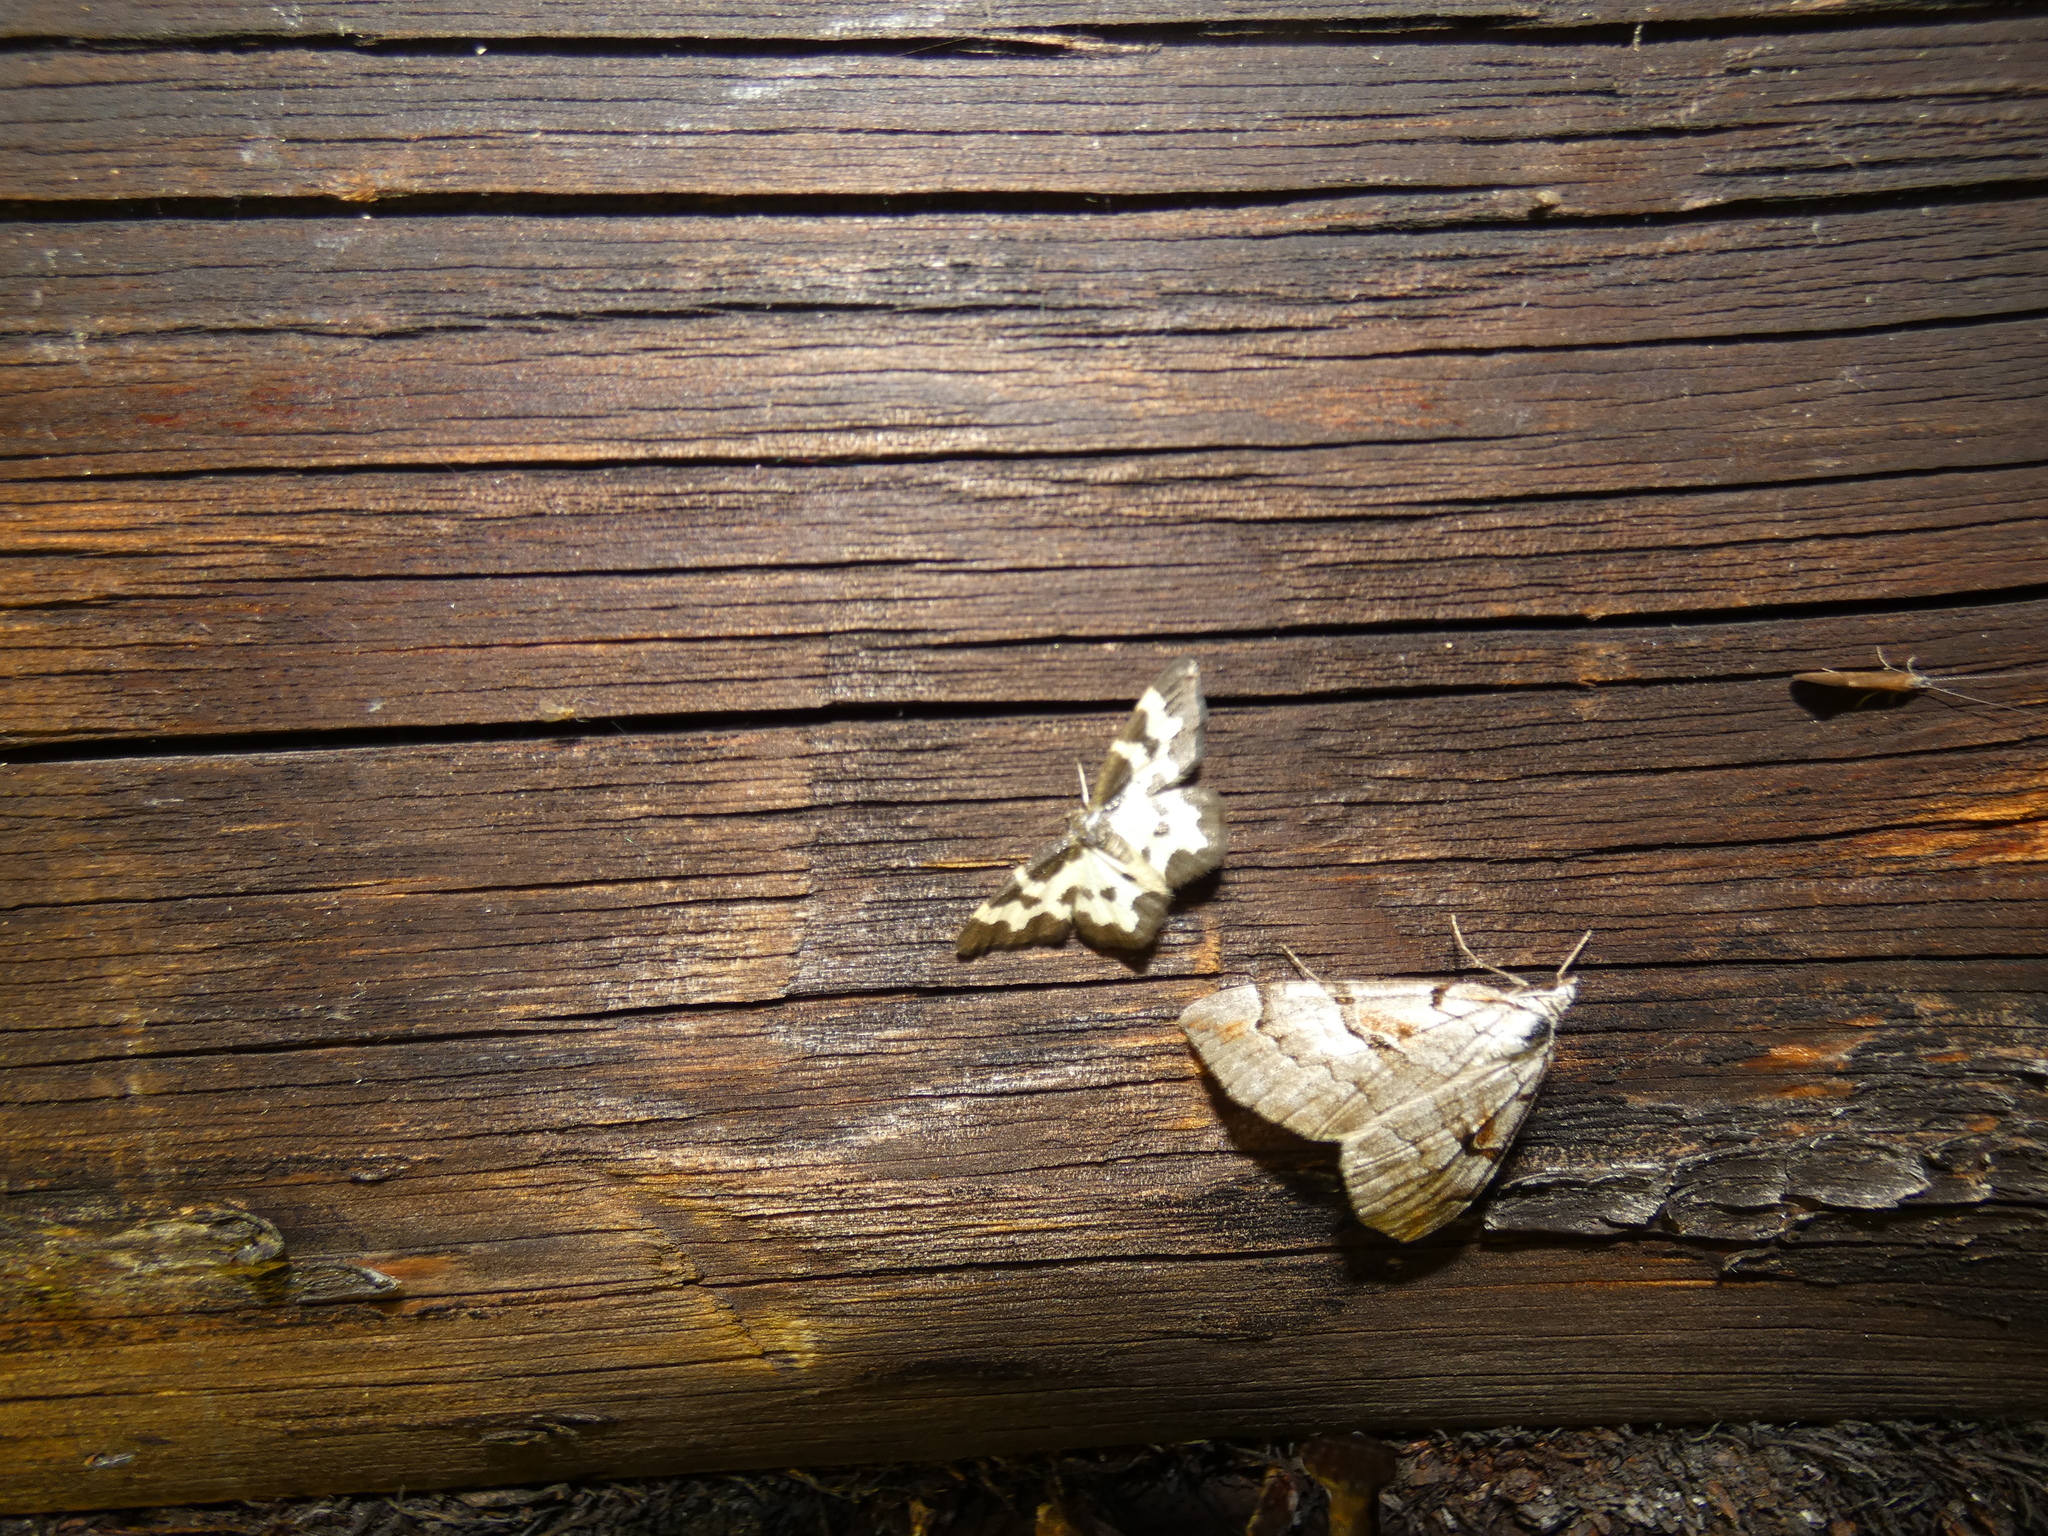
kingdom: Animalia
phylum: Arthropoda
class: Insecta
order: Lepidoptera
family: Geometridae
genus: Aplocera
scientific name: Aplocera praeformata
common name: Purple treble-bar
